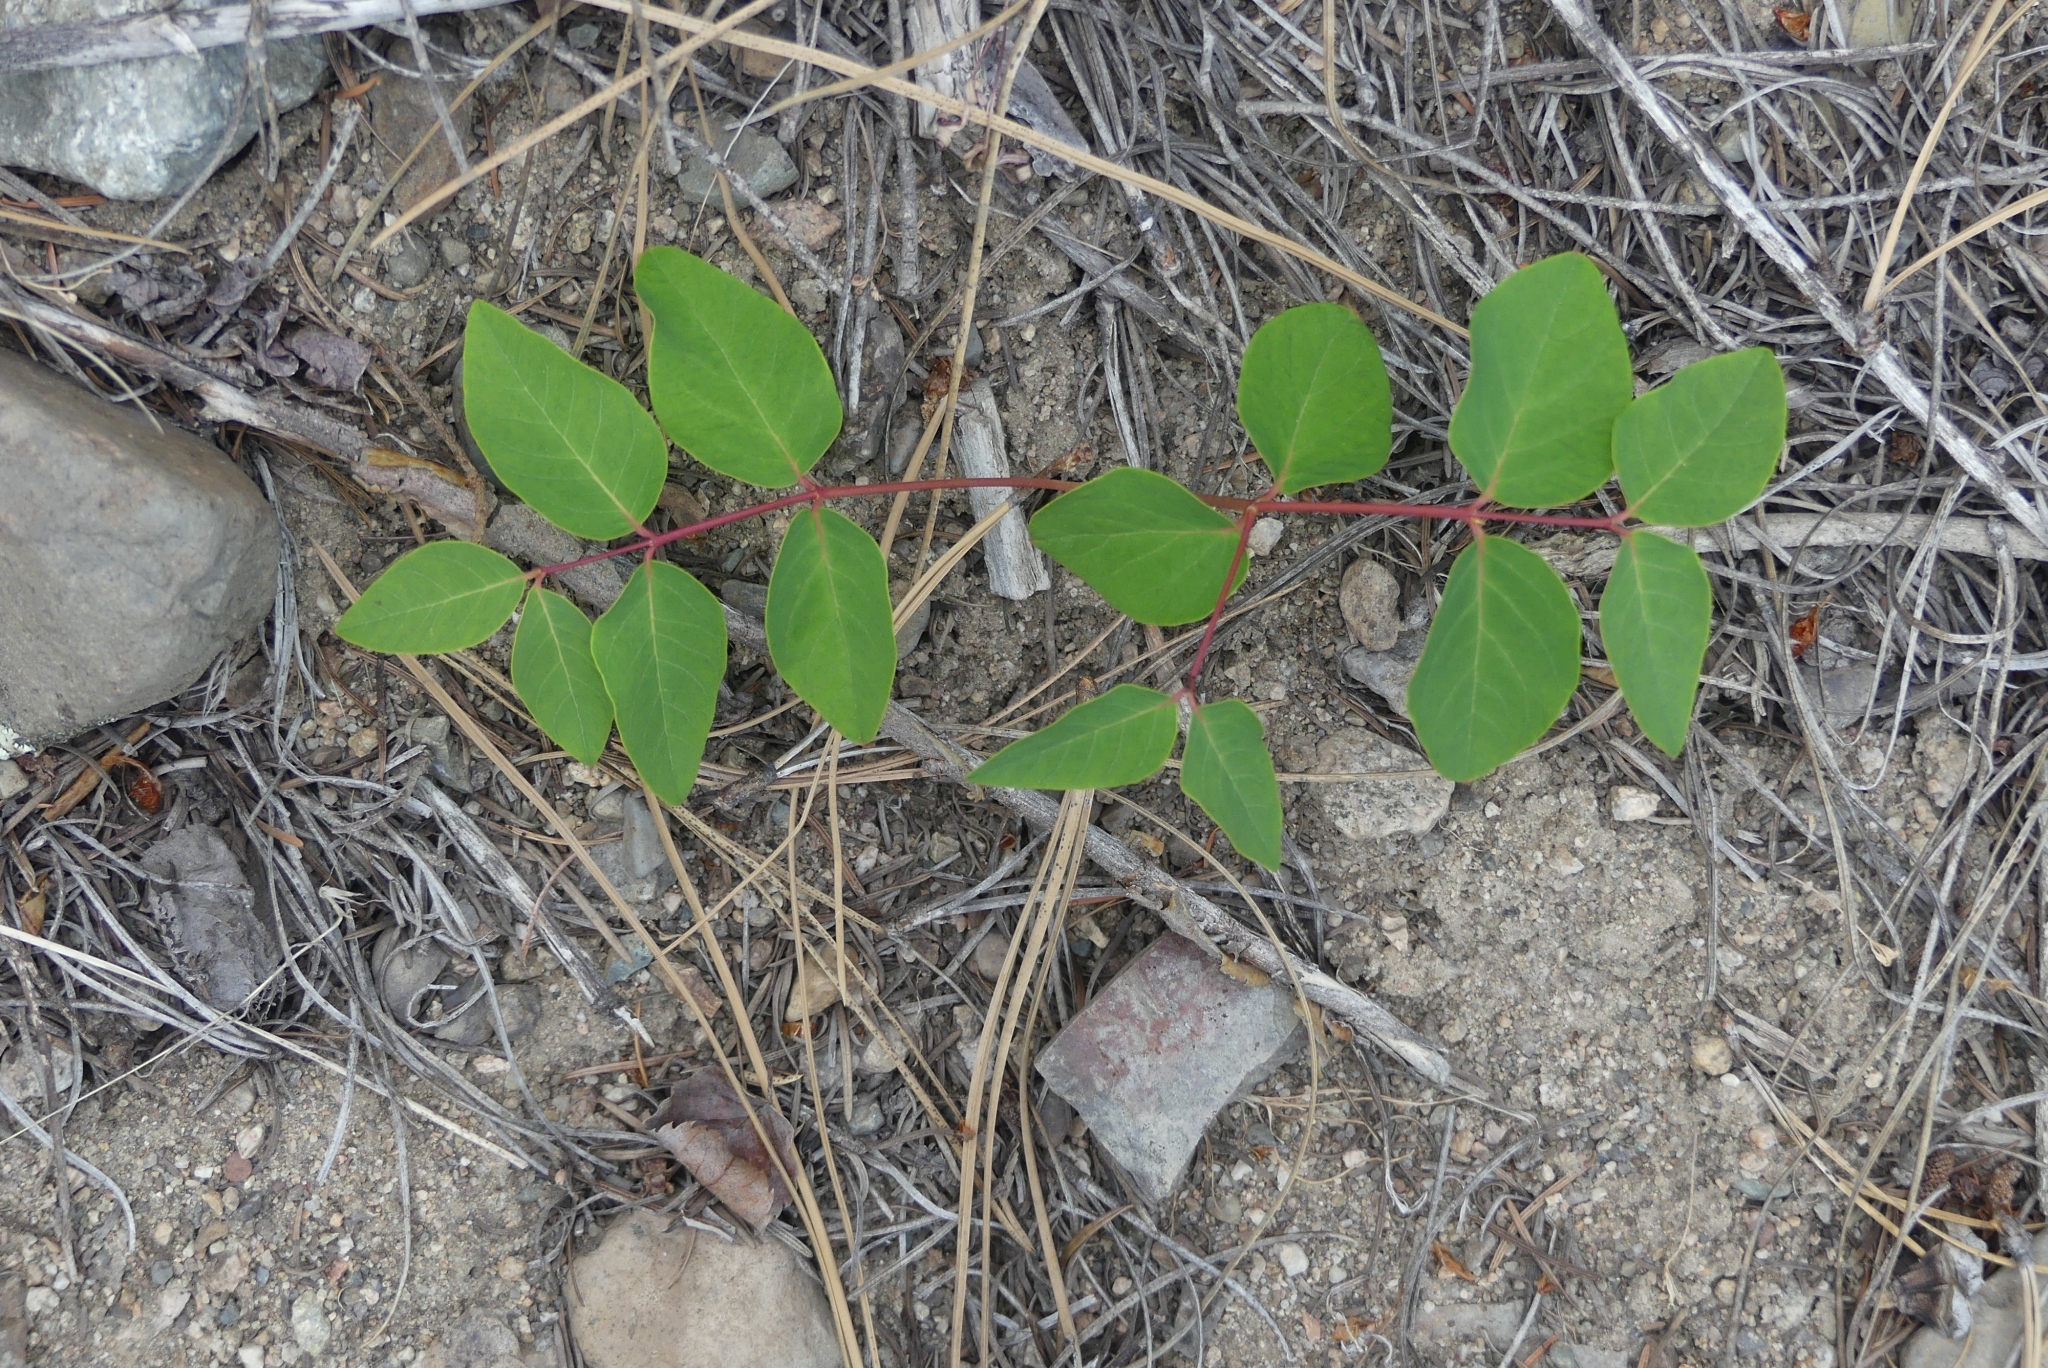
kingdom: Plantae
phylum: Tracheophyta
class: Magnoliopsida
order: Gentianales
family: Apocynaceae
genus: Apocynum
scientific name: Apocynum androsaemifolium
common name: Spreading dogbane
